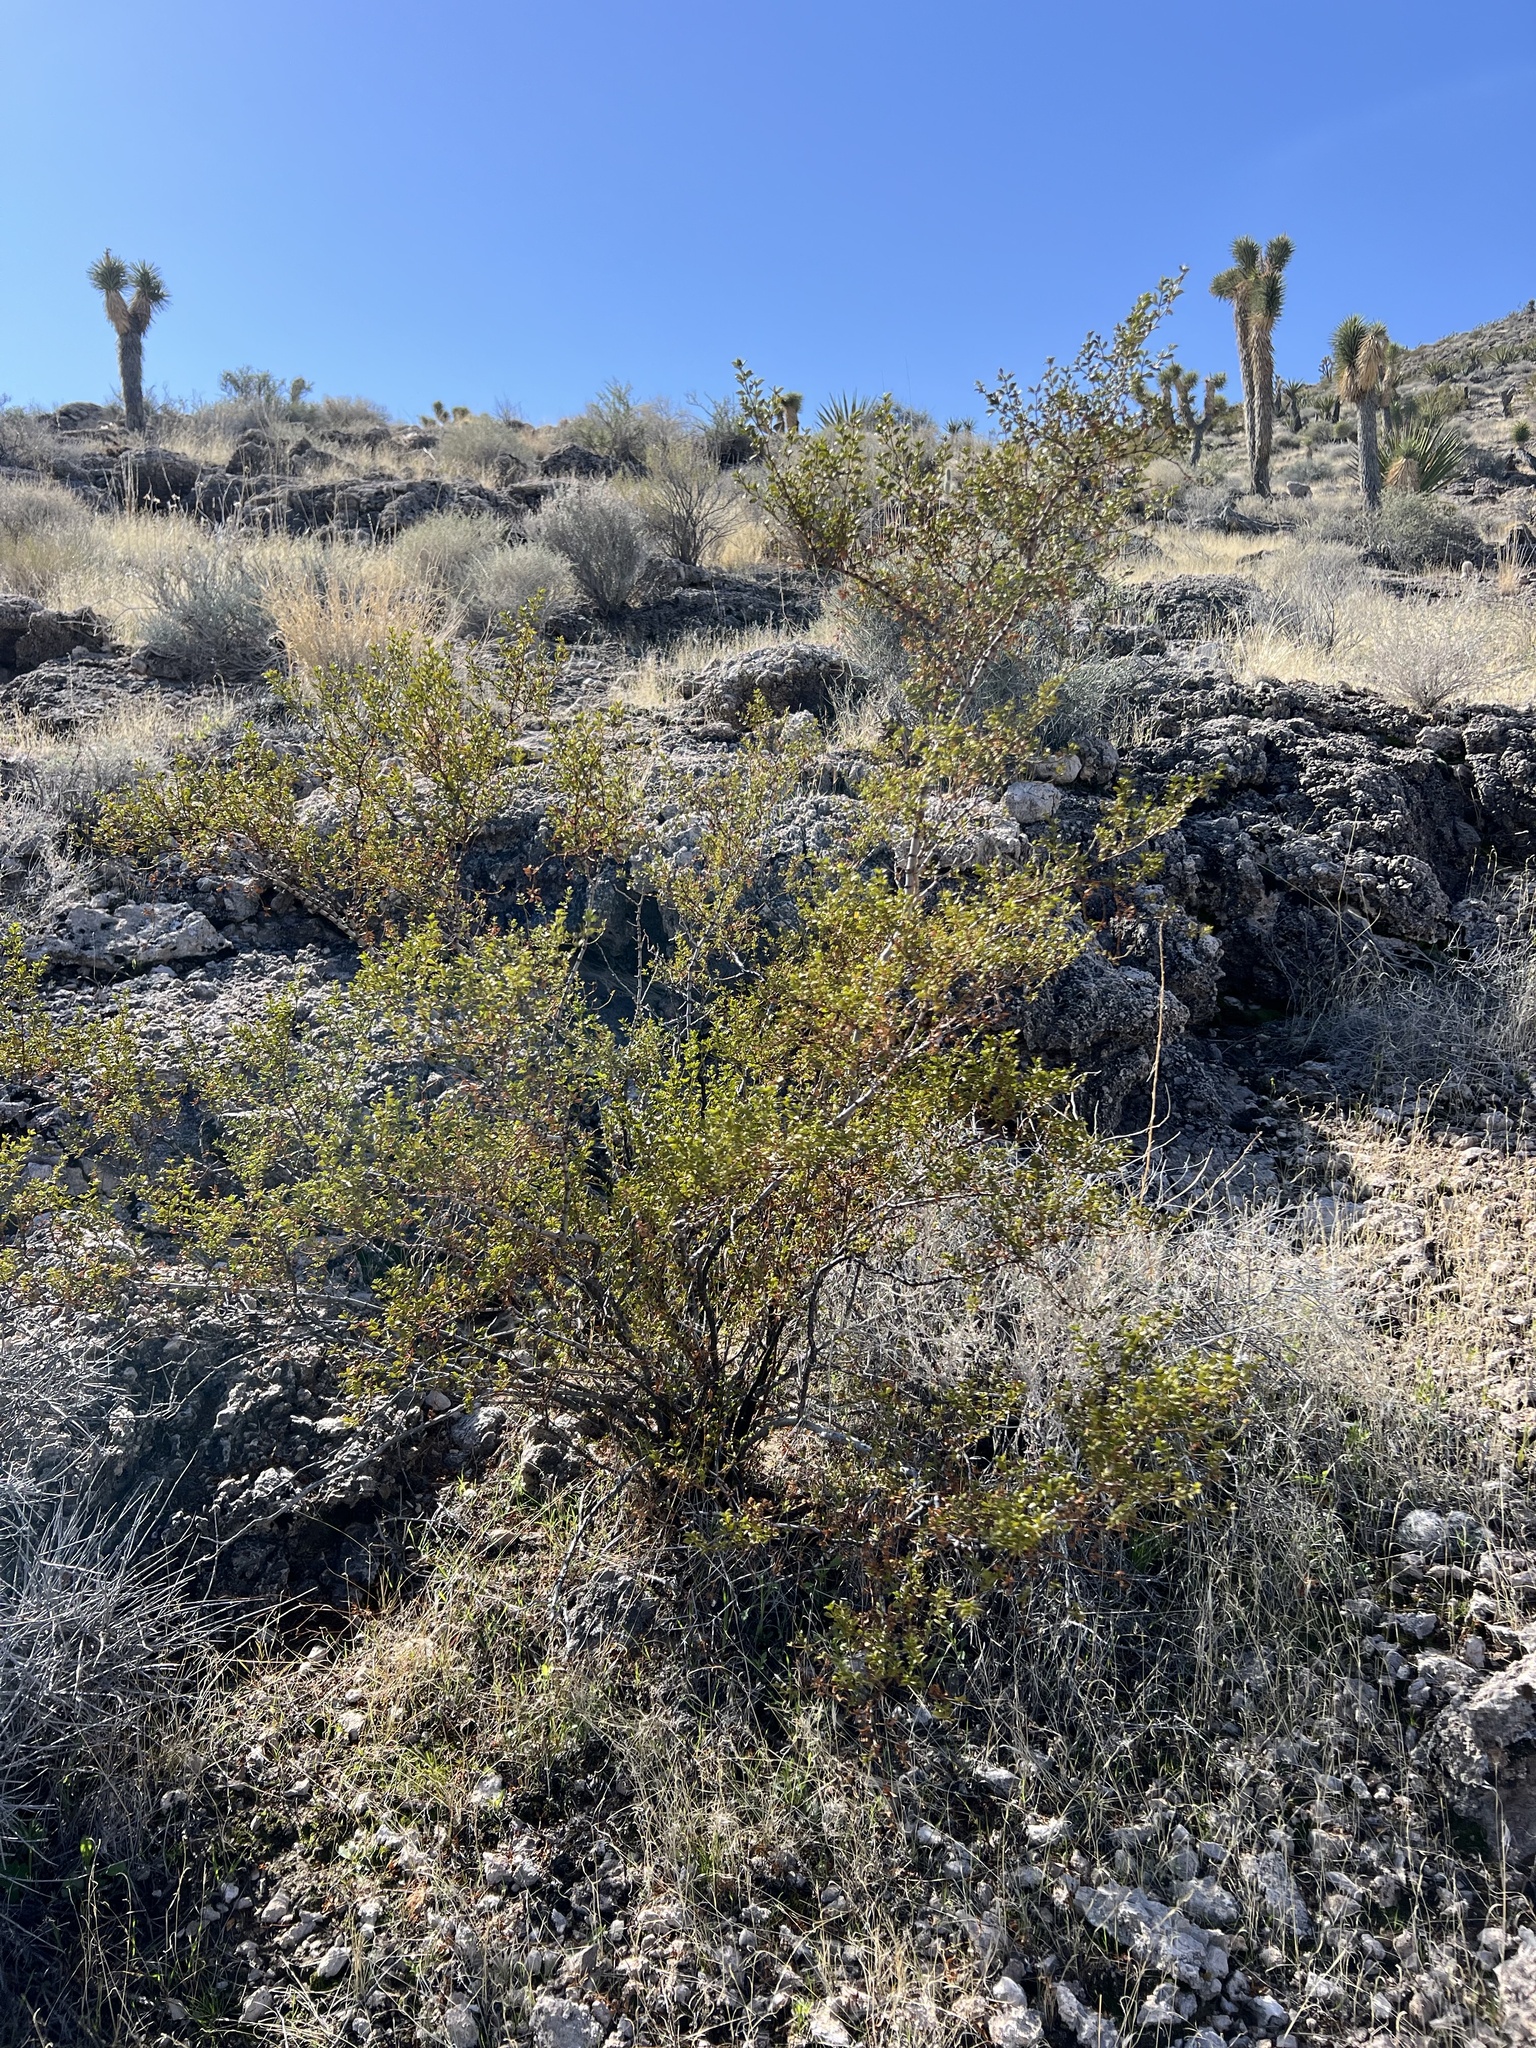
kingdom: Plantae
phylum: Tracheophyta
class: Magnoliopsida
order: Zygophyllales
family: Zygophyllaceae
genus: Larrea
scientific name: Larrea tridentata
